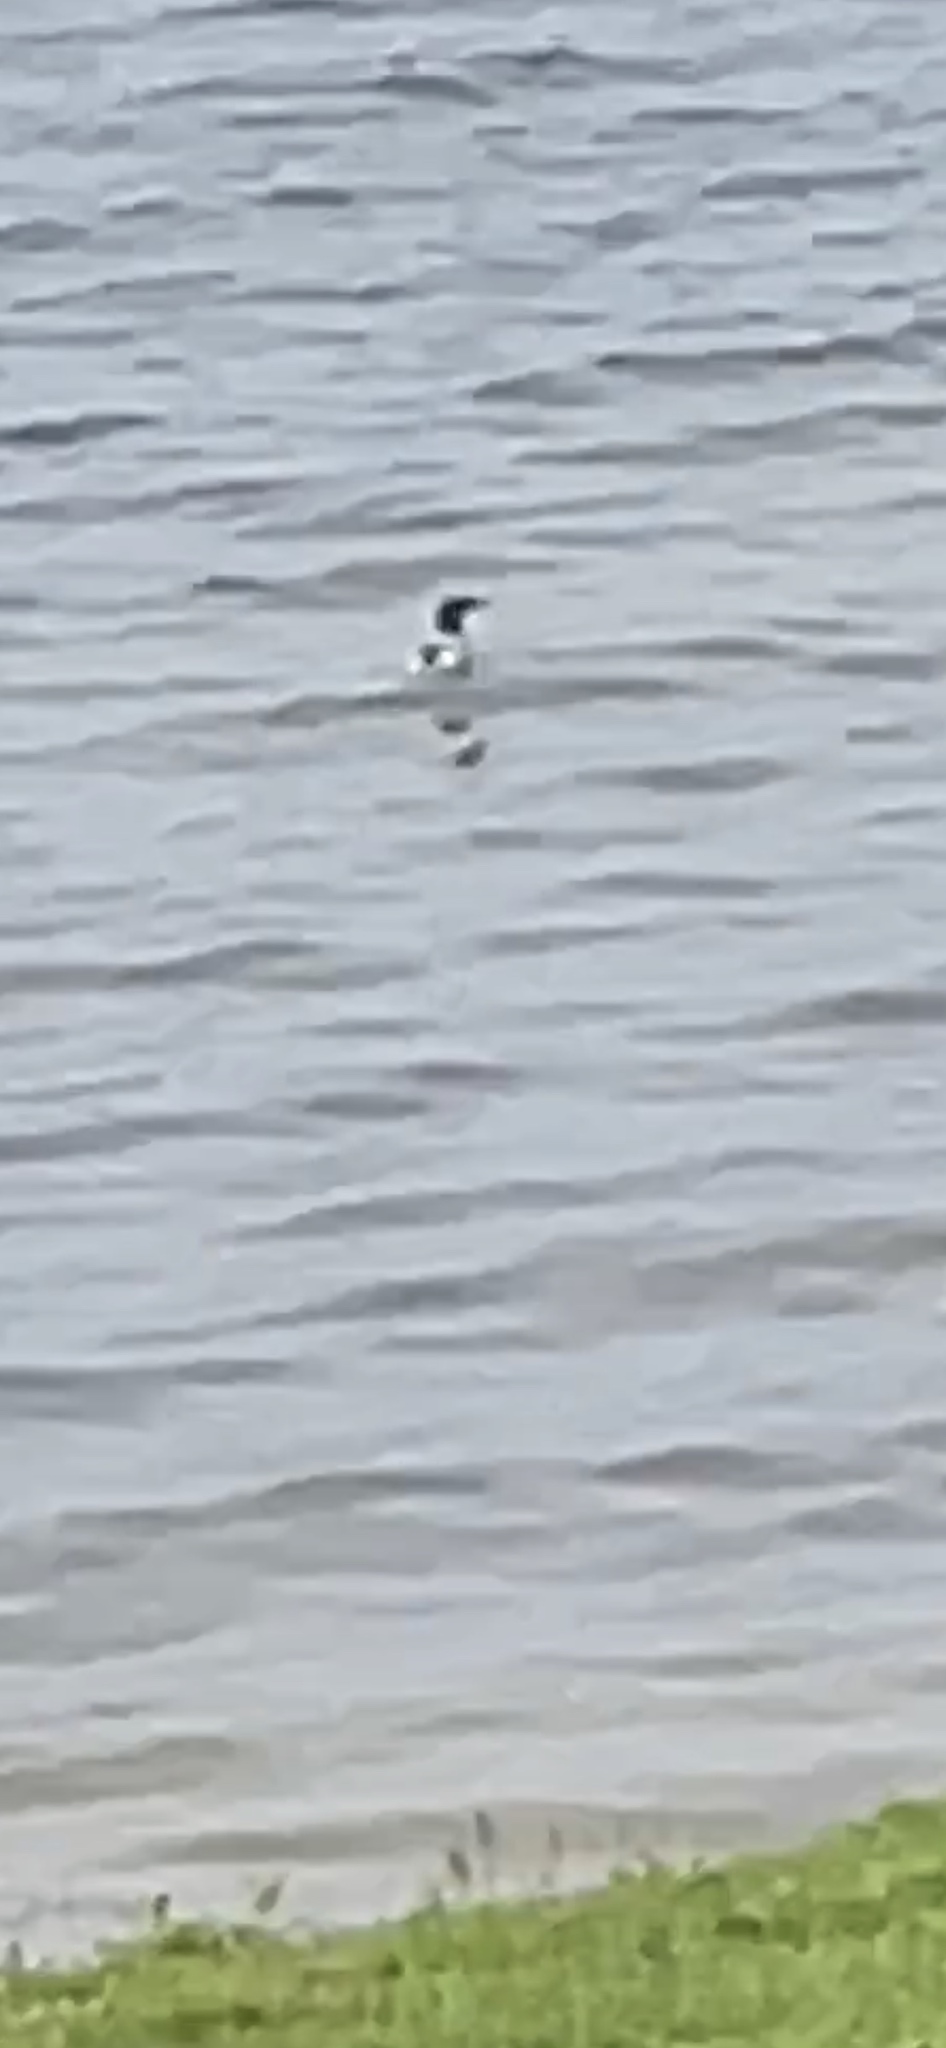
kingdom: Animalia
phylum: Chordata
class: Aves
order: Anseriformes
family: Anatidae
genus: Mergus
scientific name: Mergus merganser
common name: Common merganser
